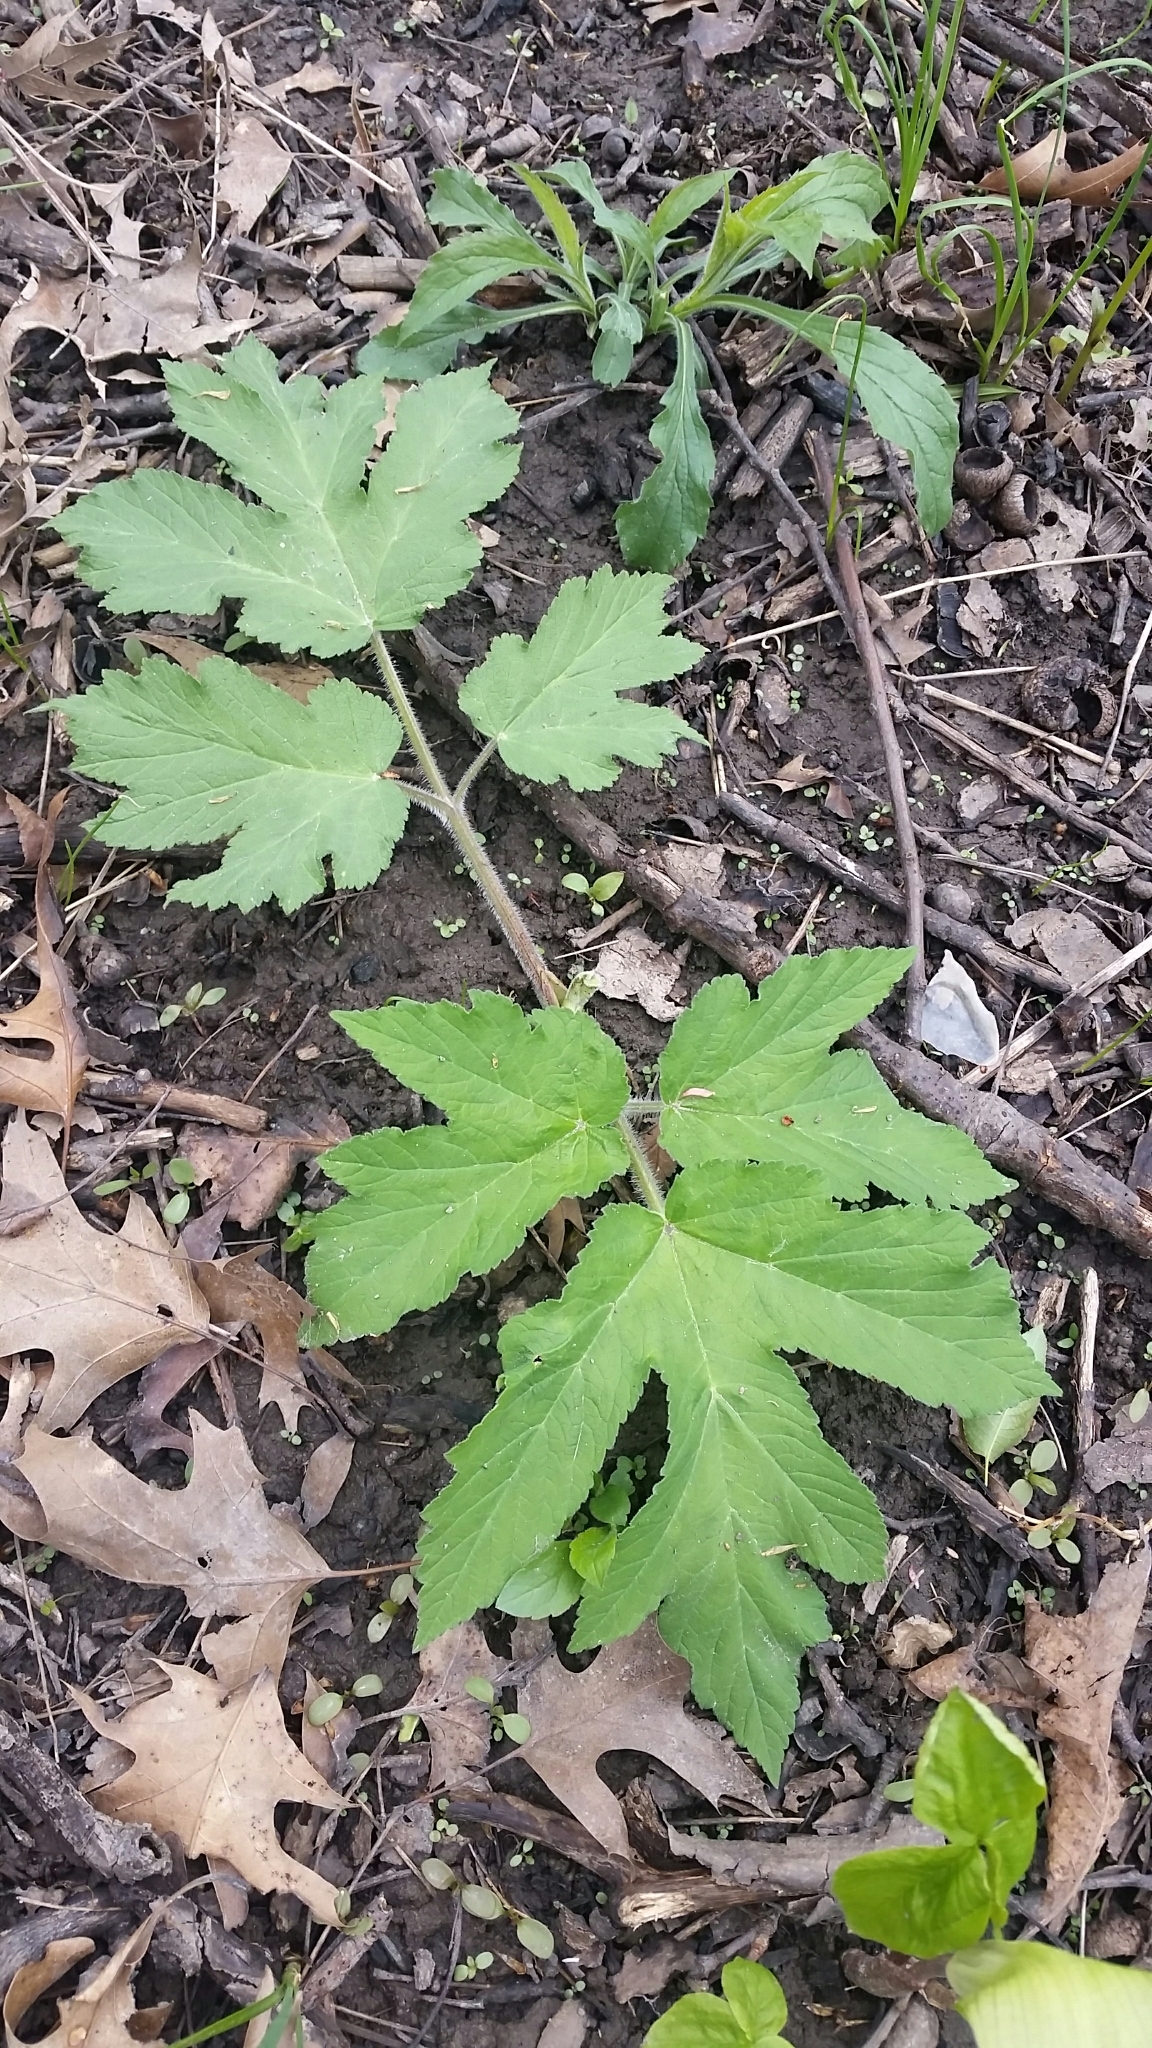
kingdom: Plantae
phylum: Tracheophyta
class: Magnoliopsida
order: Apiales
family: Apiaceae
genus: Heracleum
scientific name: Heracleum maximum
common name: American cow parsnip
